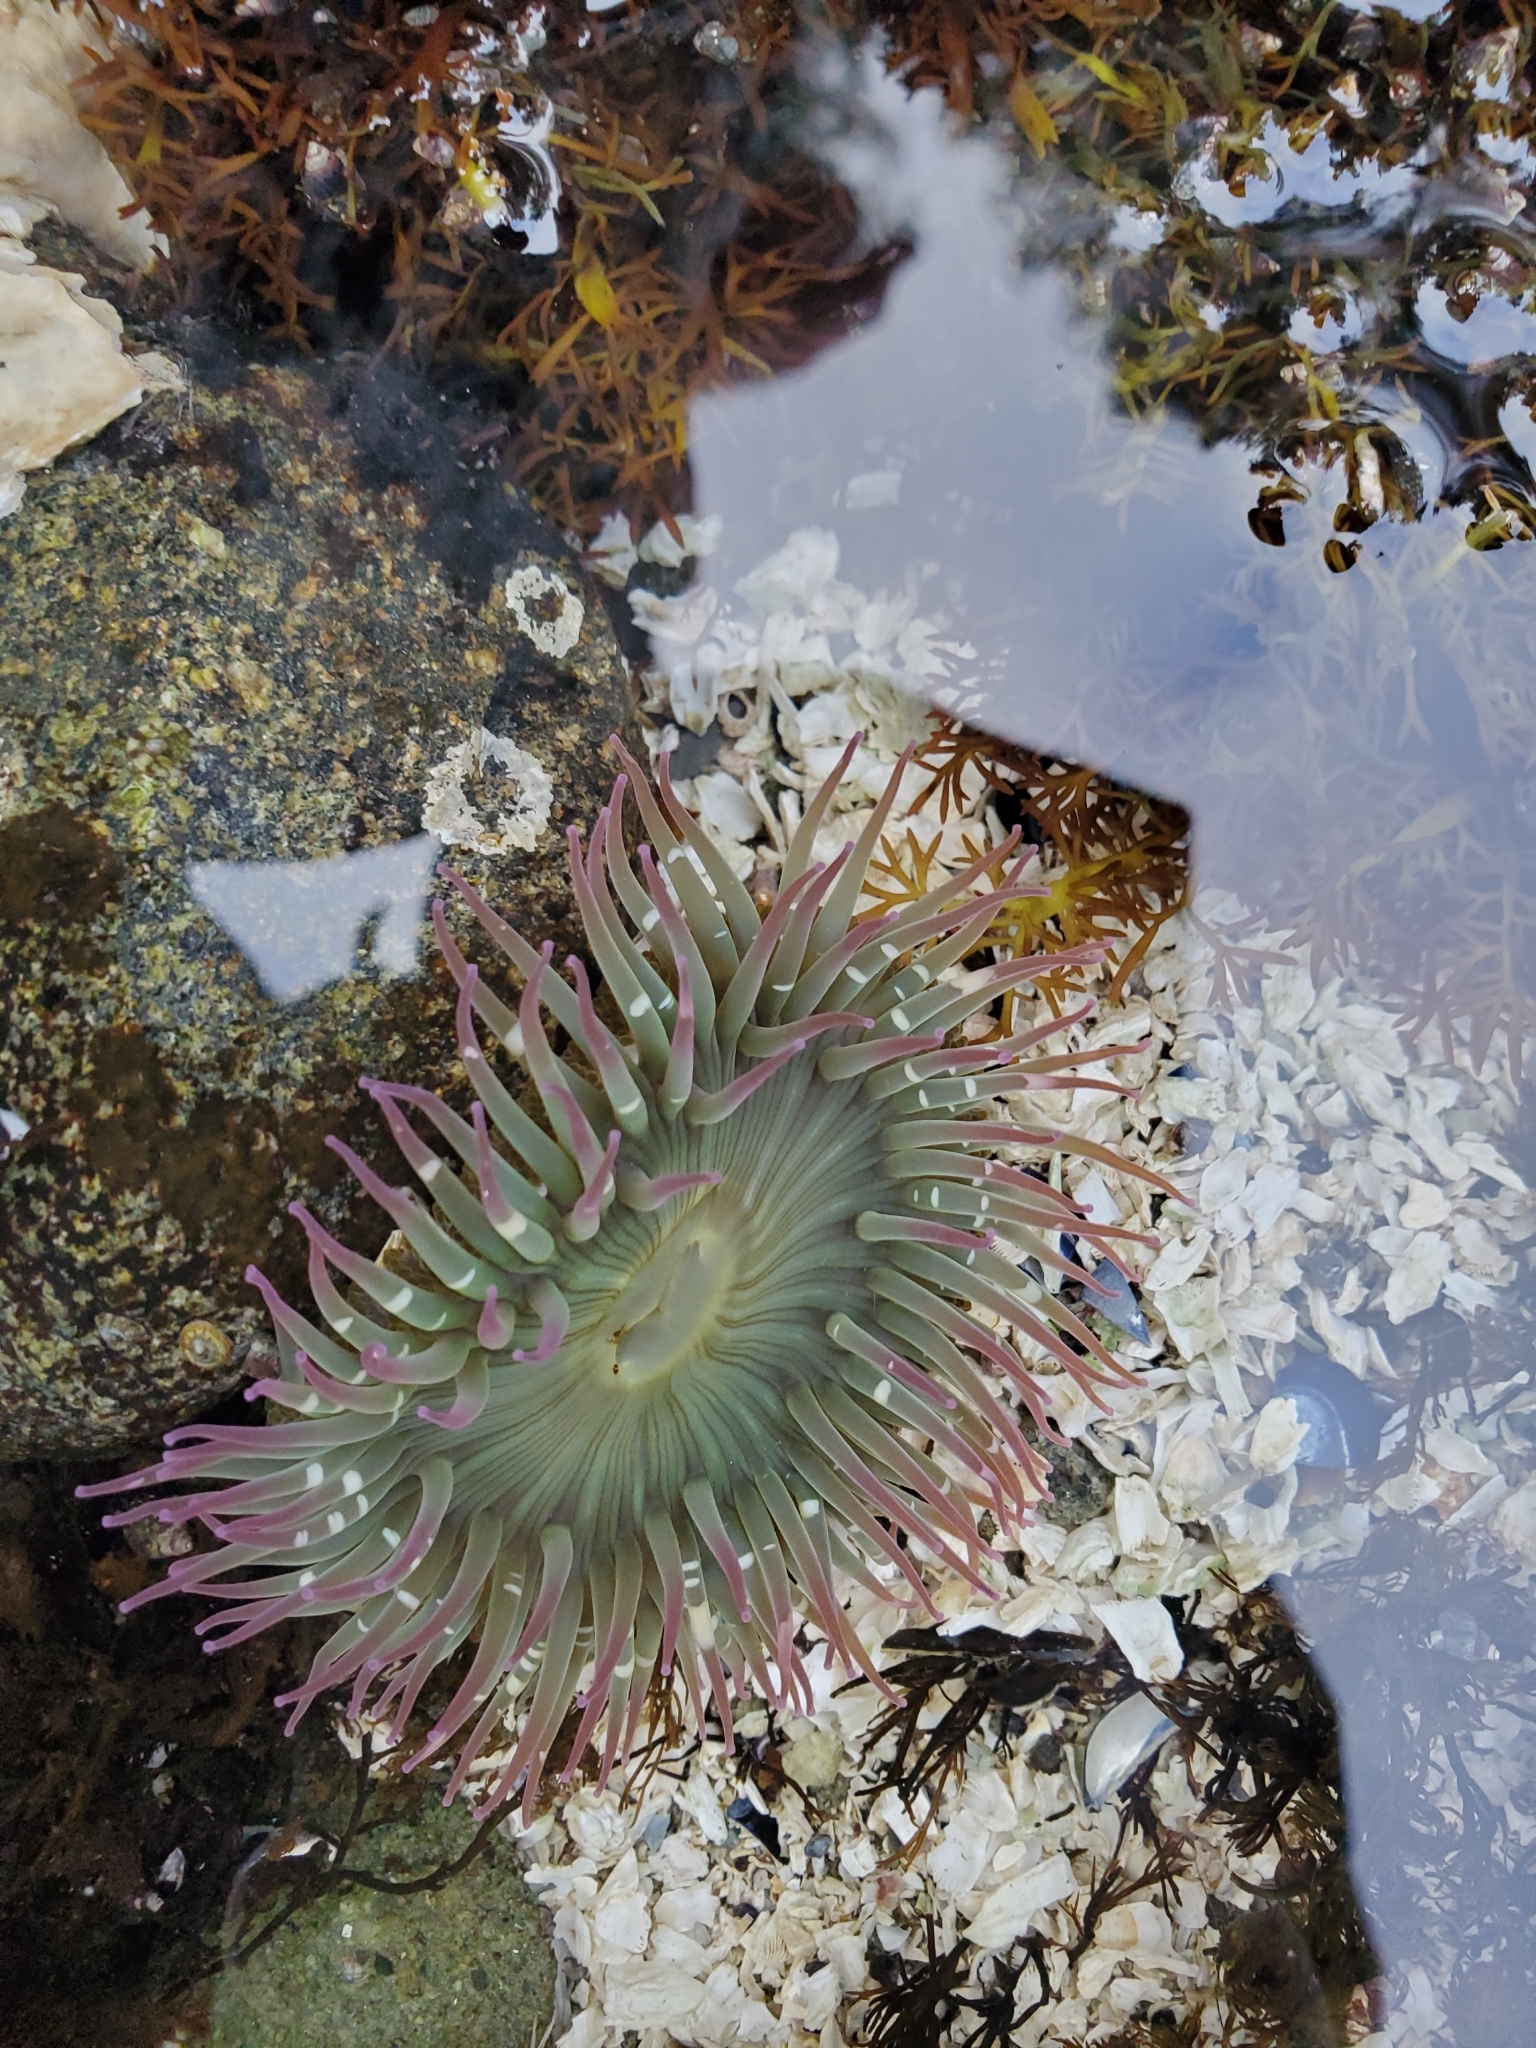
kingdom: Animalia
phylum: Cnidaria
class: Anthozoa
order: Actiniaria
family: Actiniidae
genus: Anthopleura
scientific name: Anthopleura elegantissima
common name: Clonal anemone
